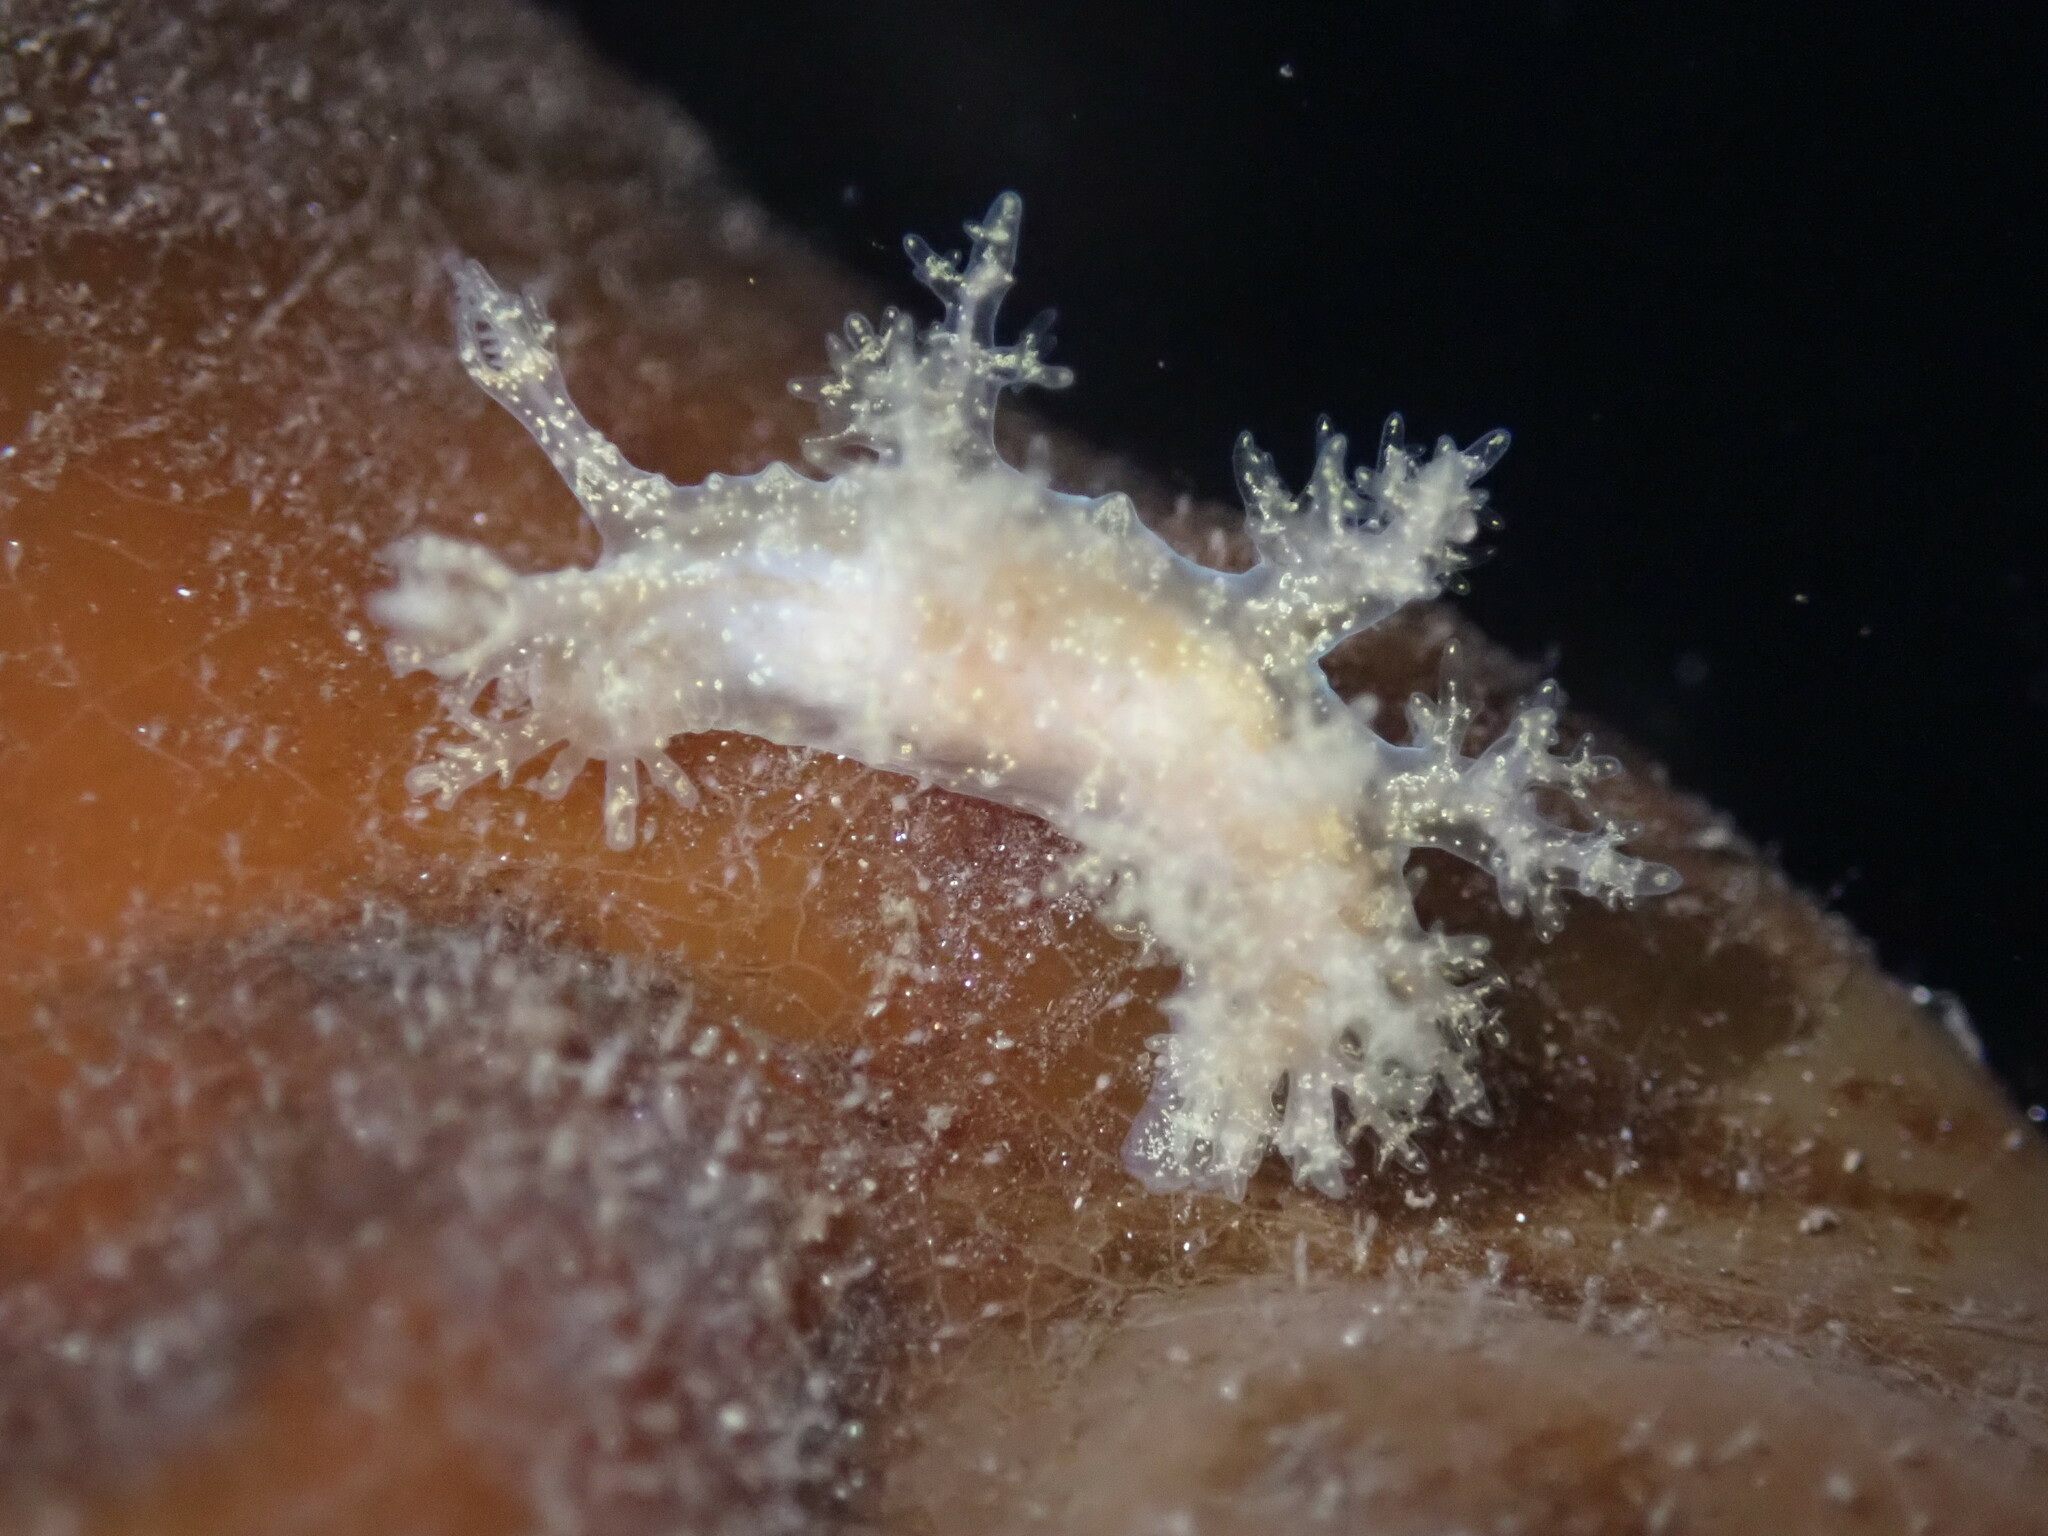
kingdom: Animalia
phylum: Mollusca
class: Gastropoda
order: Nudibranchia
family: Dendronotidae
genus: Dendronotus
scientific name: Dendronotus venustus
